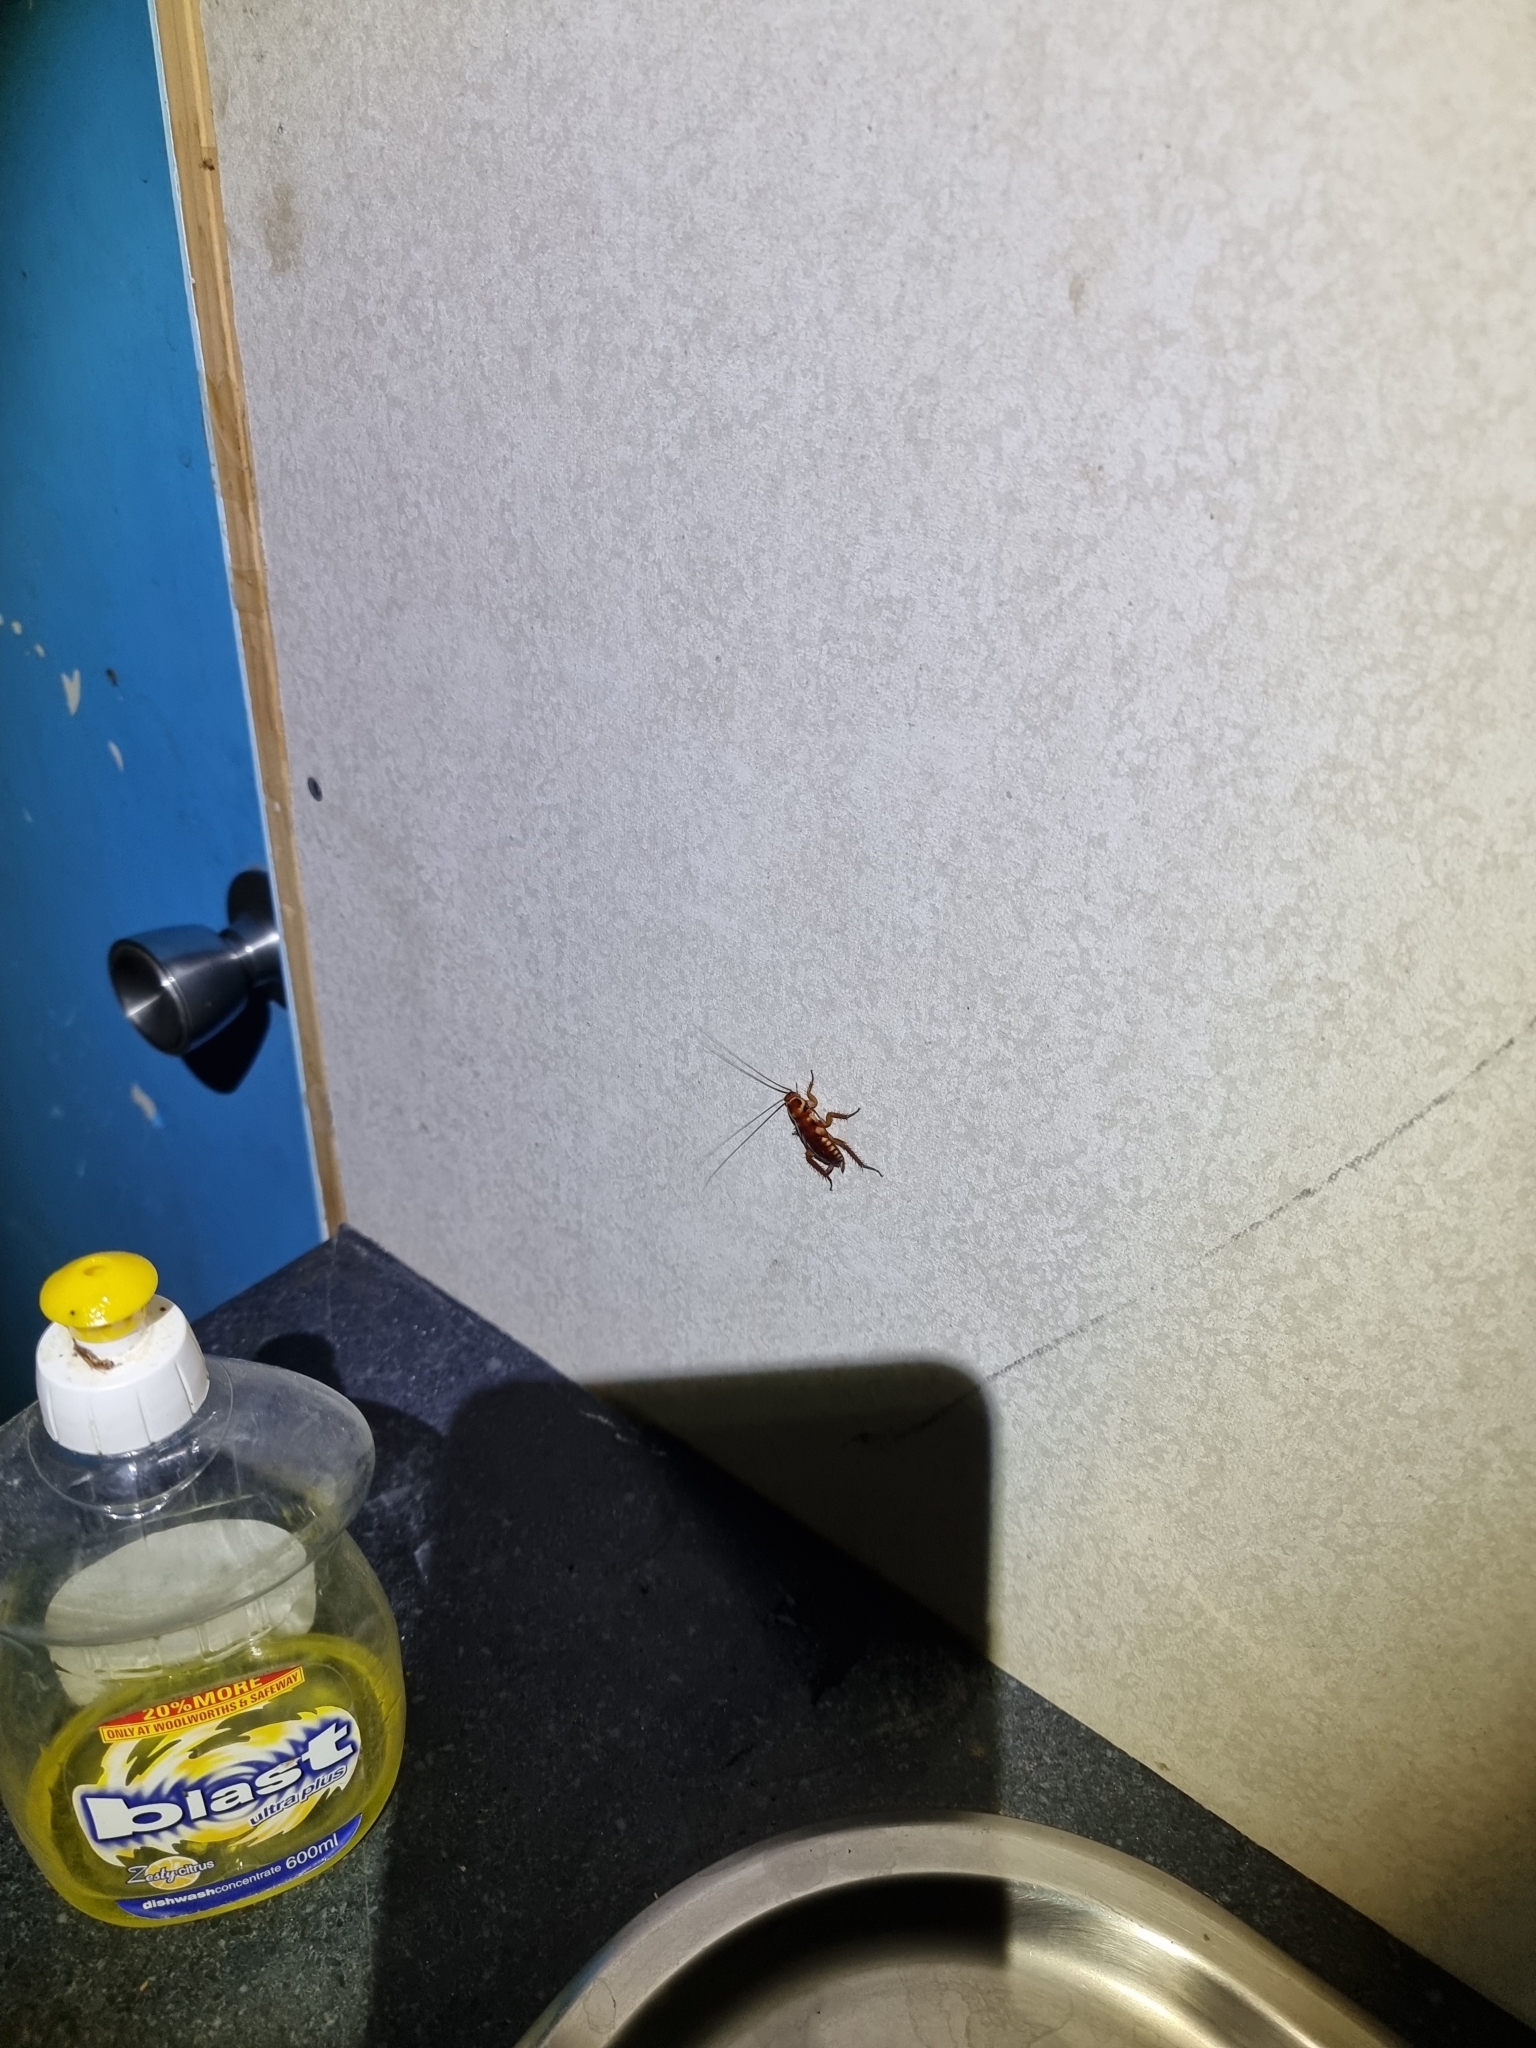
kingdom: Animalia
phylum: Arthropoda
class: Insecta
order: Blattodea
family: Blattidae
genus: Periplaneta
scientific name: Periplaneta australasiae
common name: Australian cockroach
